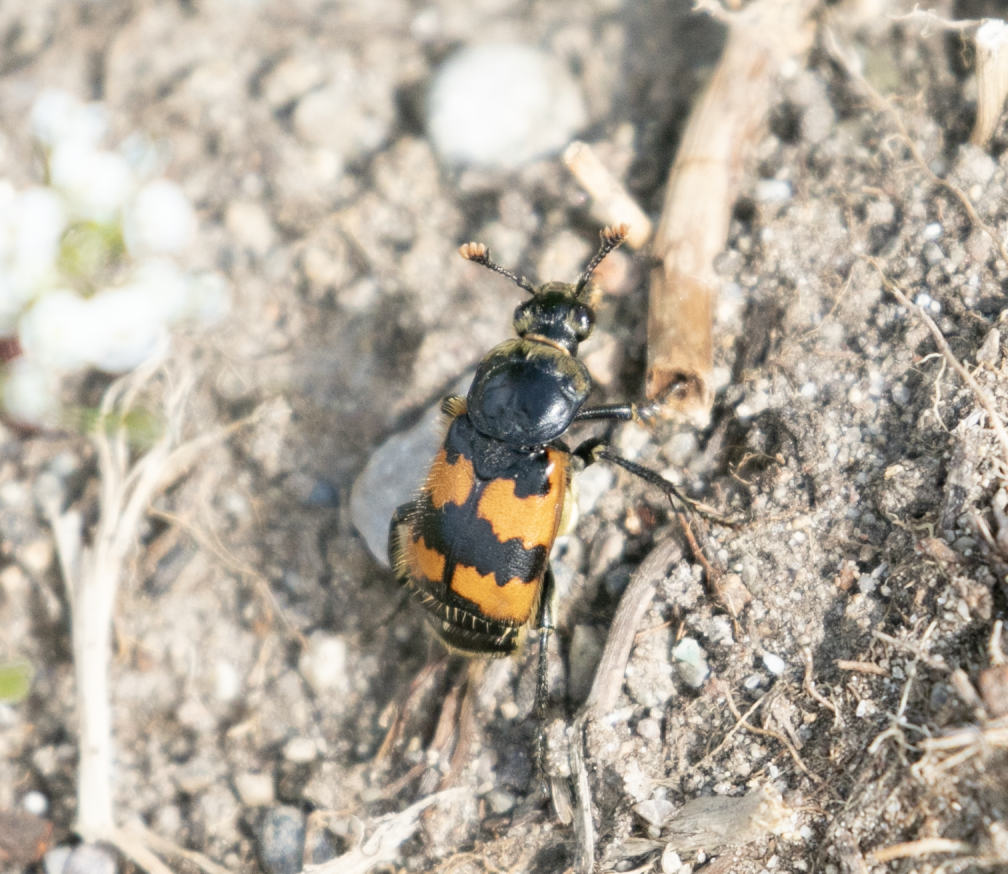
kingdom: Animalia
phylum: Arthropoda
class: Insecta
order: Coleoptera
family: Staphylinidae
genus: Nicrophorus
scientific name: Nicrophorus vespillo
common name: Common burying beetle
